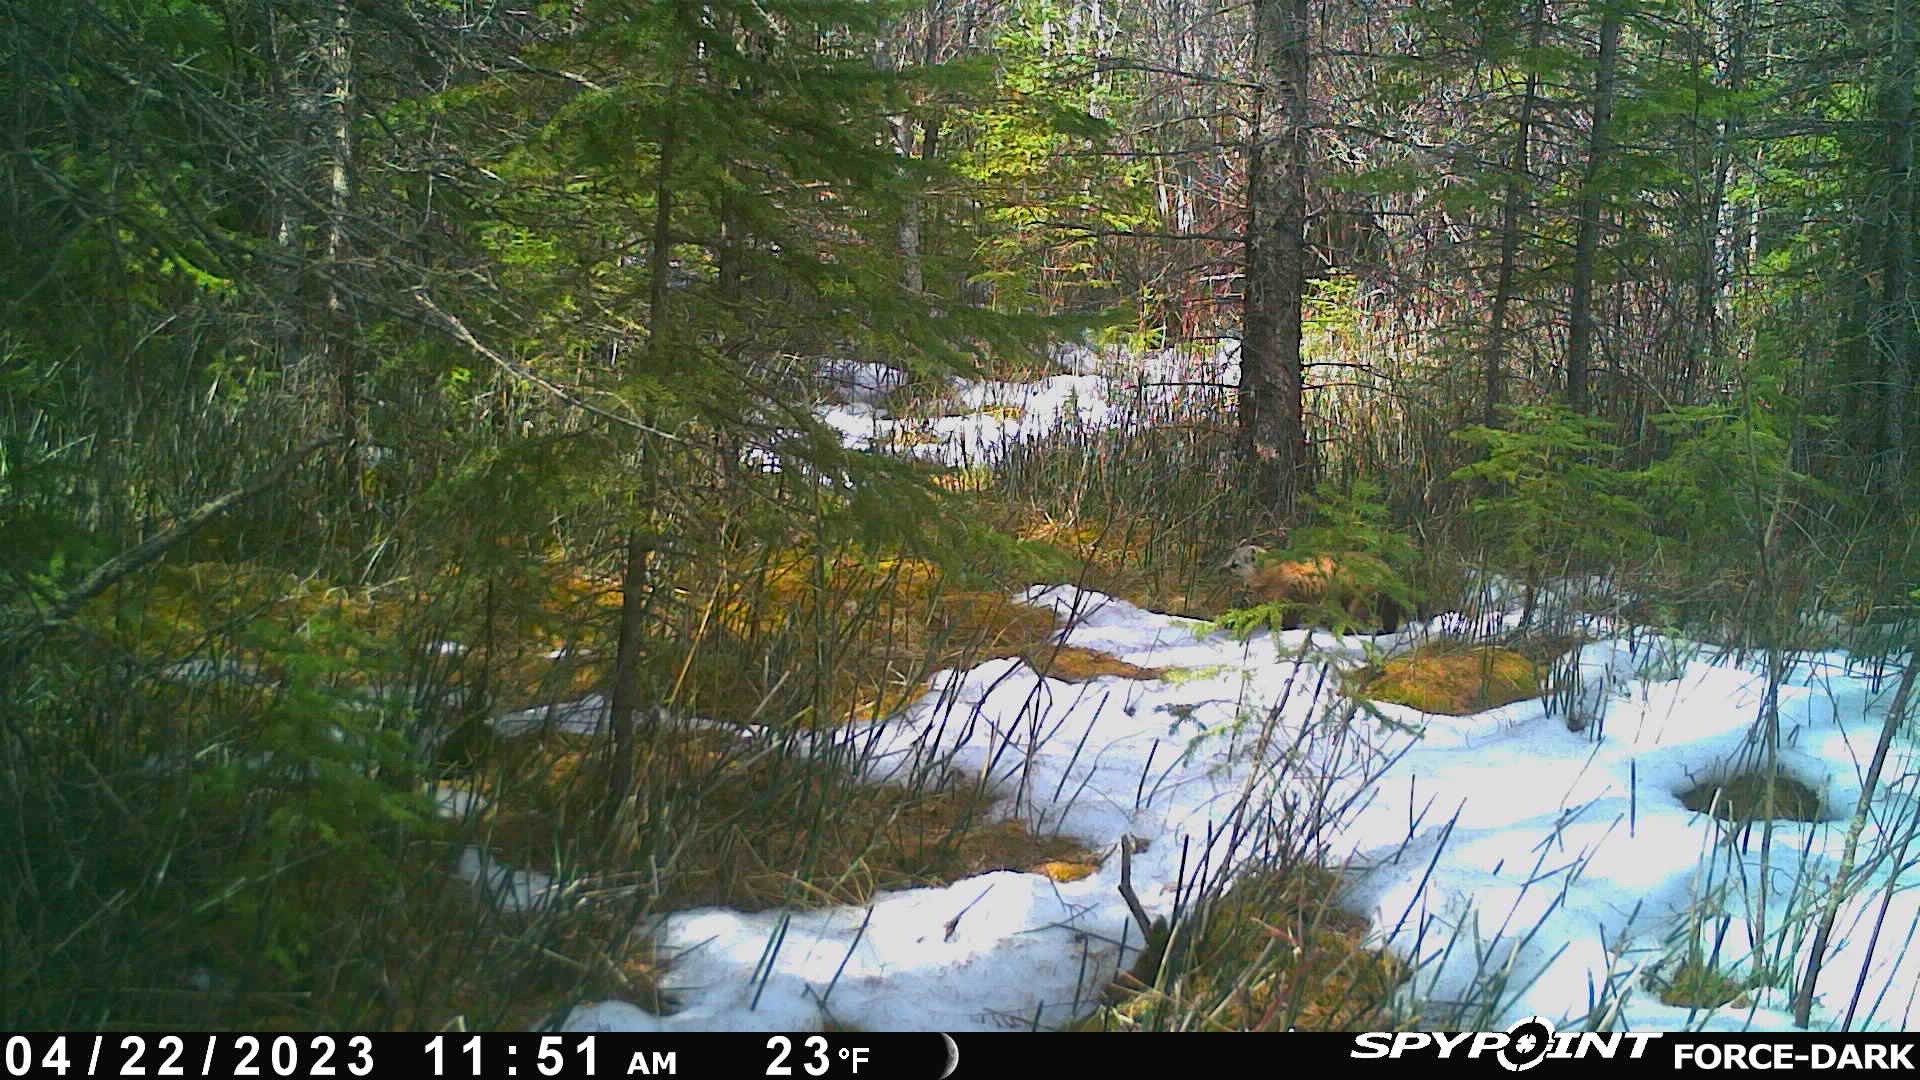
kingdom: Animalia
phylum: Chordata
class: Mammalia
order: Carnivora
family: Mustelidae
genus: Martes
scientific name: Martes americana
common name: American marten
